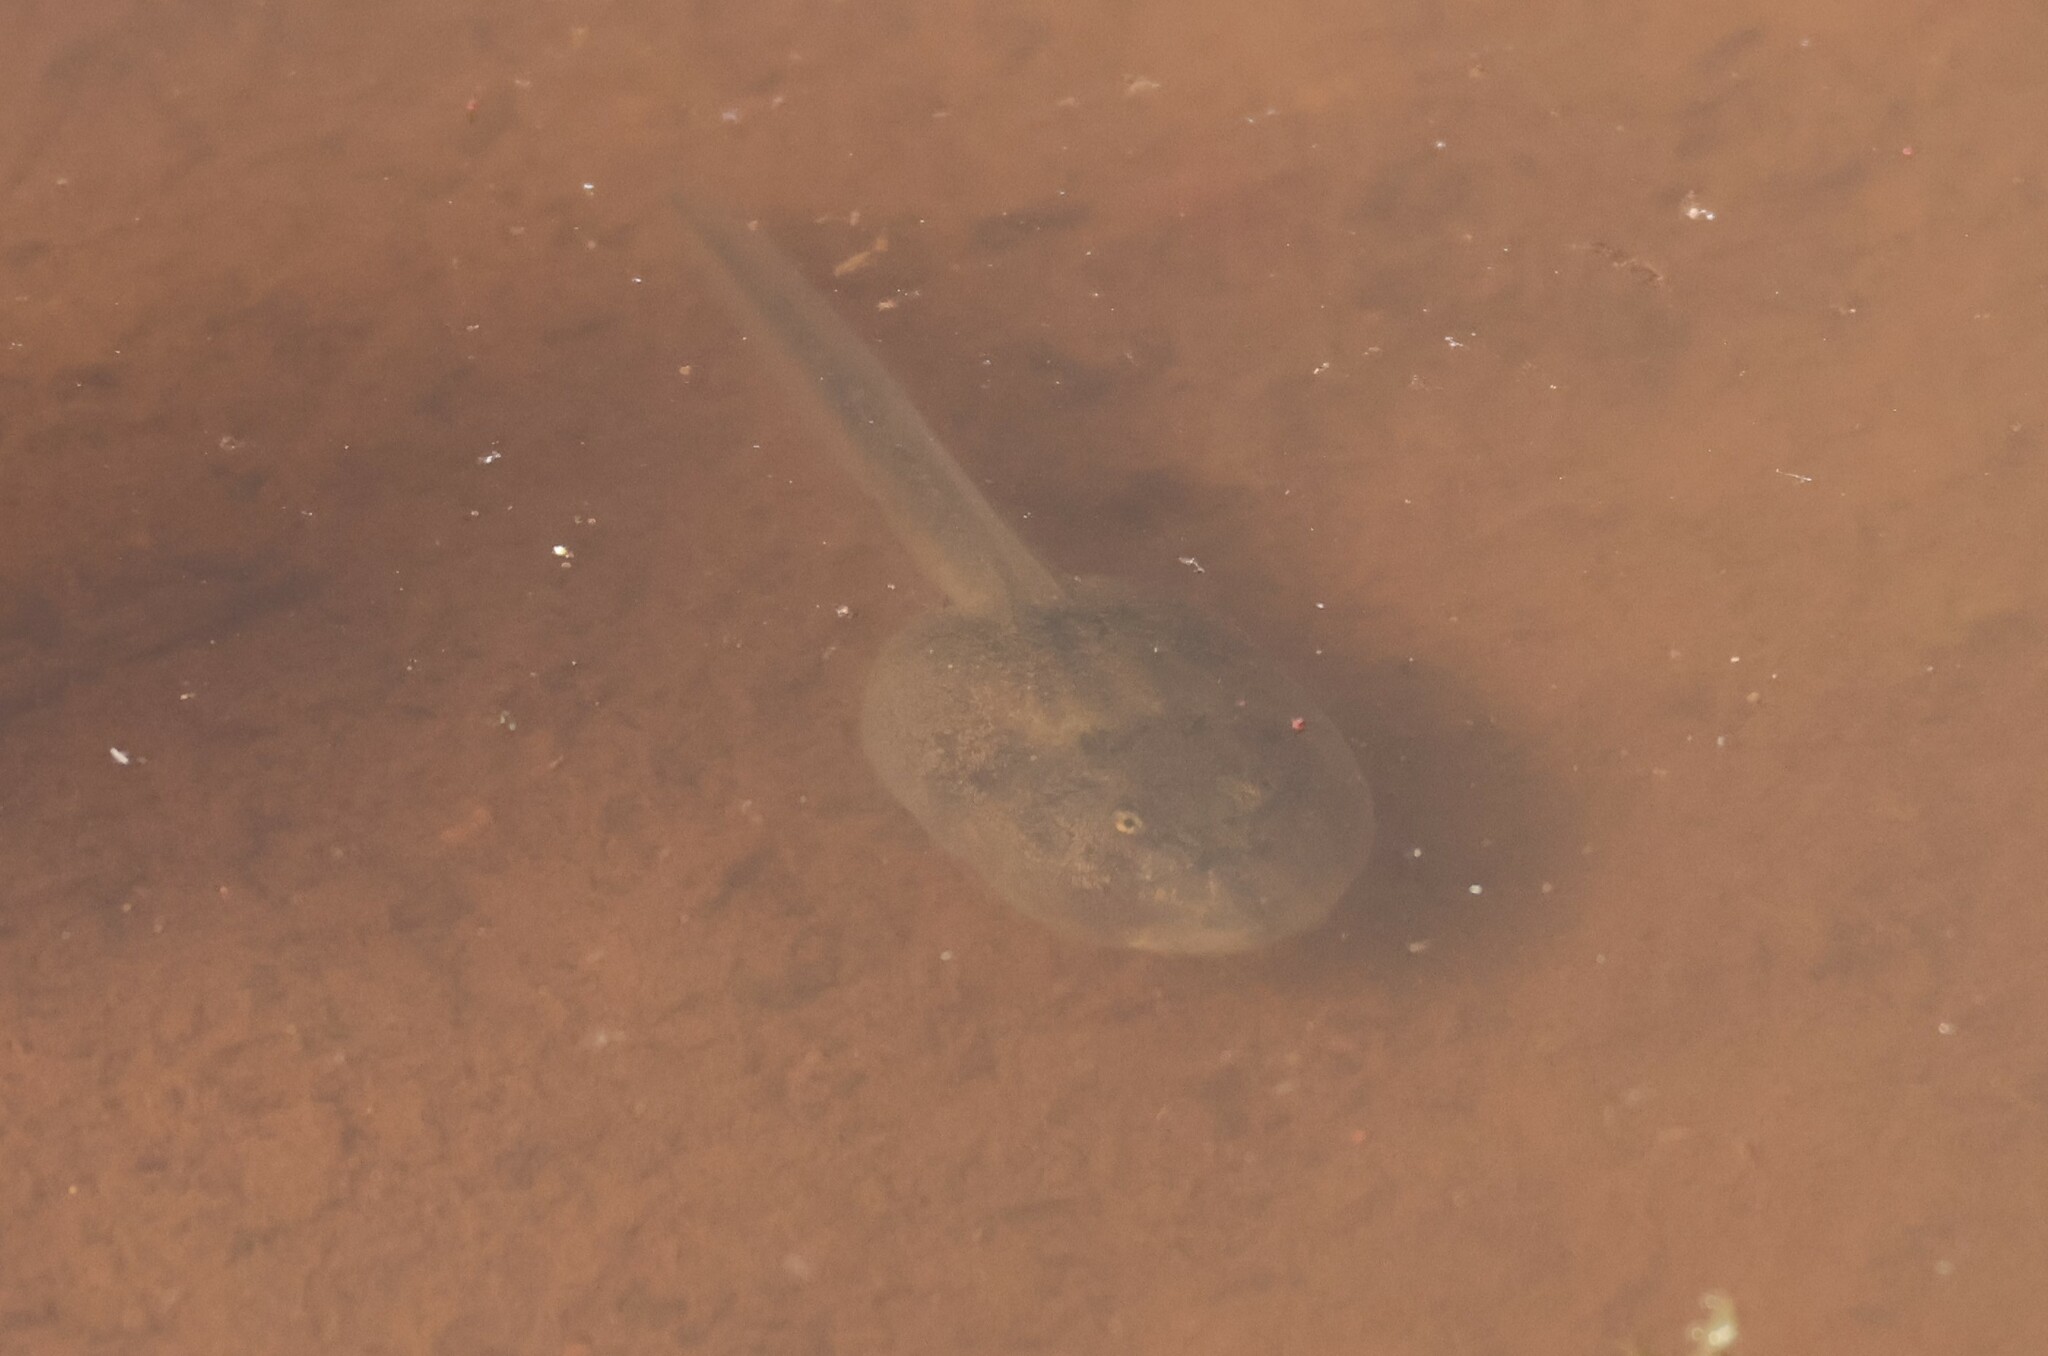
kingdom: Animalia
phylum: Chordata
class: Amphibia
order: Anura
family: Scaphiopodidae
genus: Spea
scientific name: Spea hammondii
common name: Western spadefoot toad
